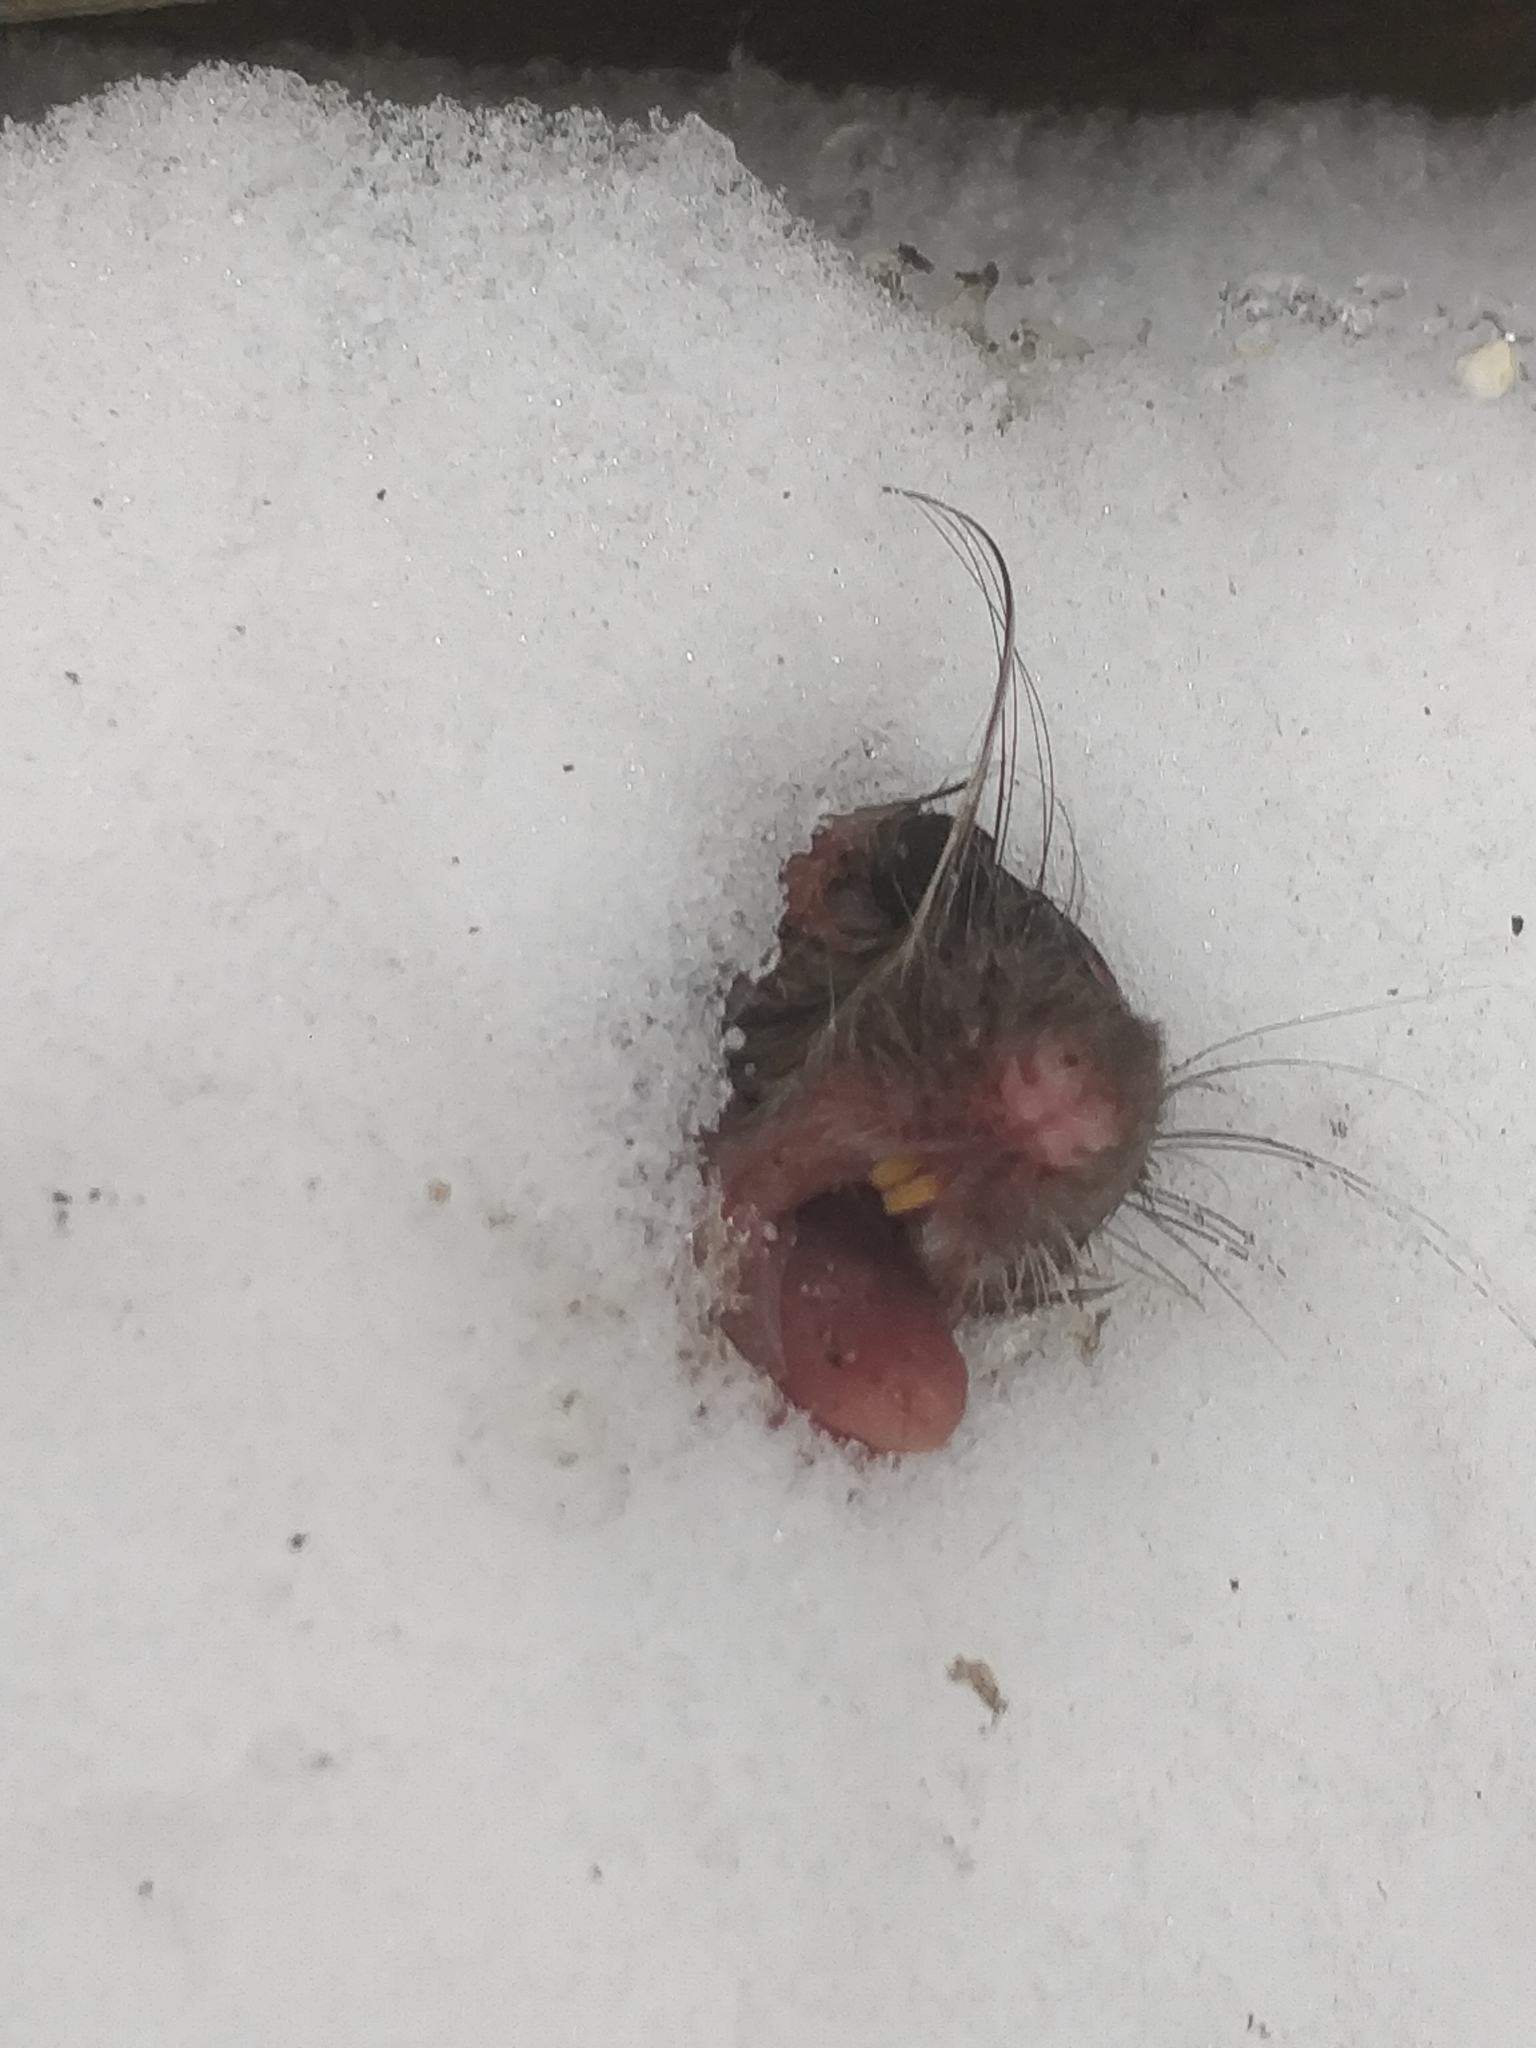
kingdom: Animalia
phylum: Chordata
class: Mammalia
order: Rodentia
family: Muridae
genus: Rattus
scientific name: Rattus norvegicus
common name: Brown rat
